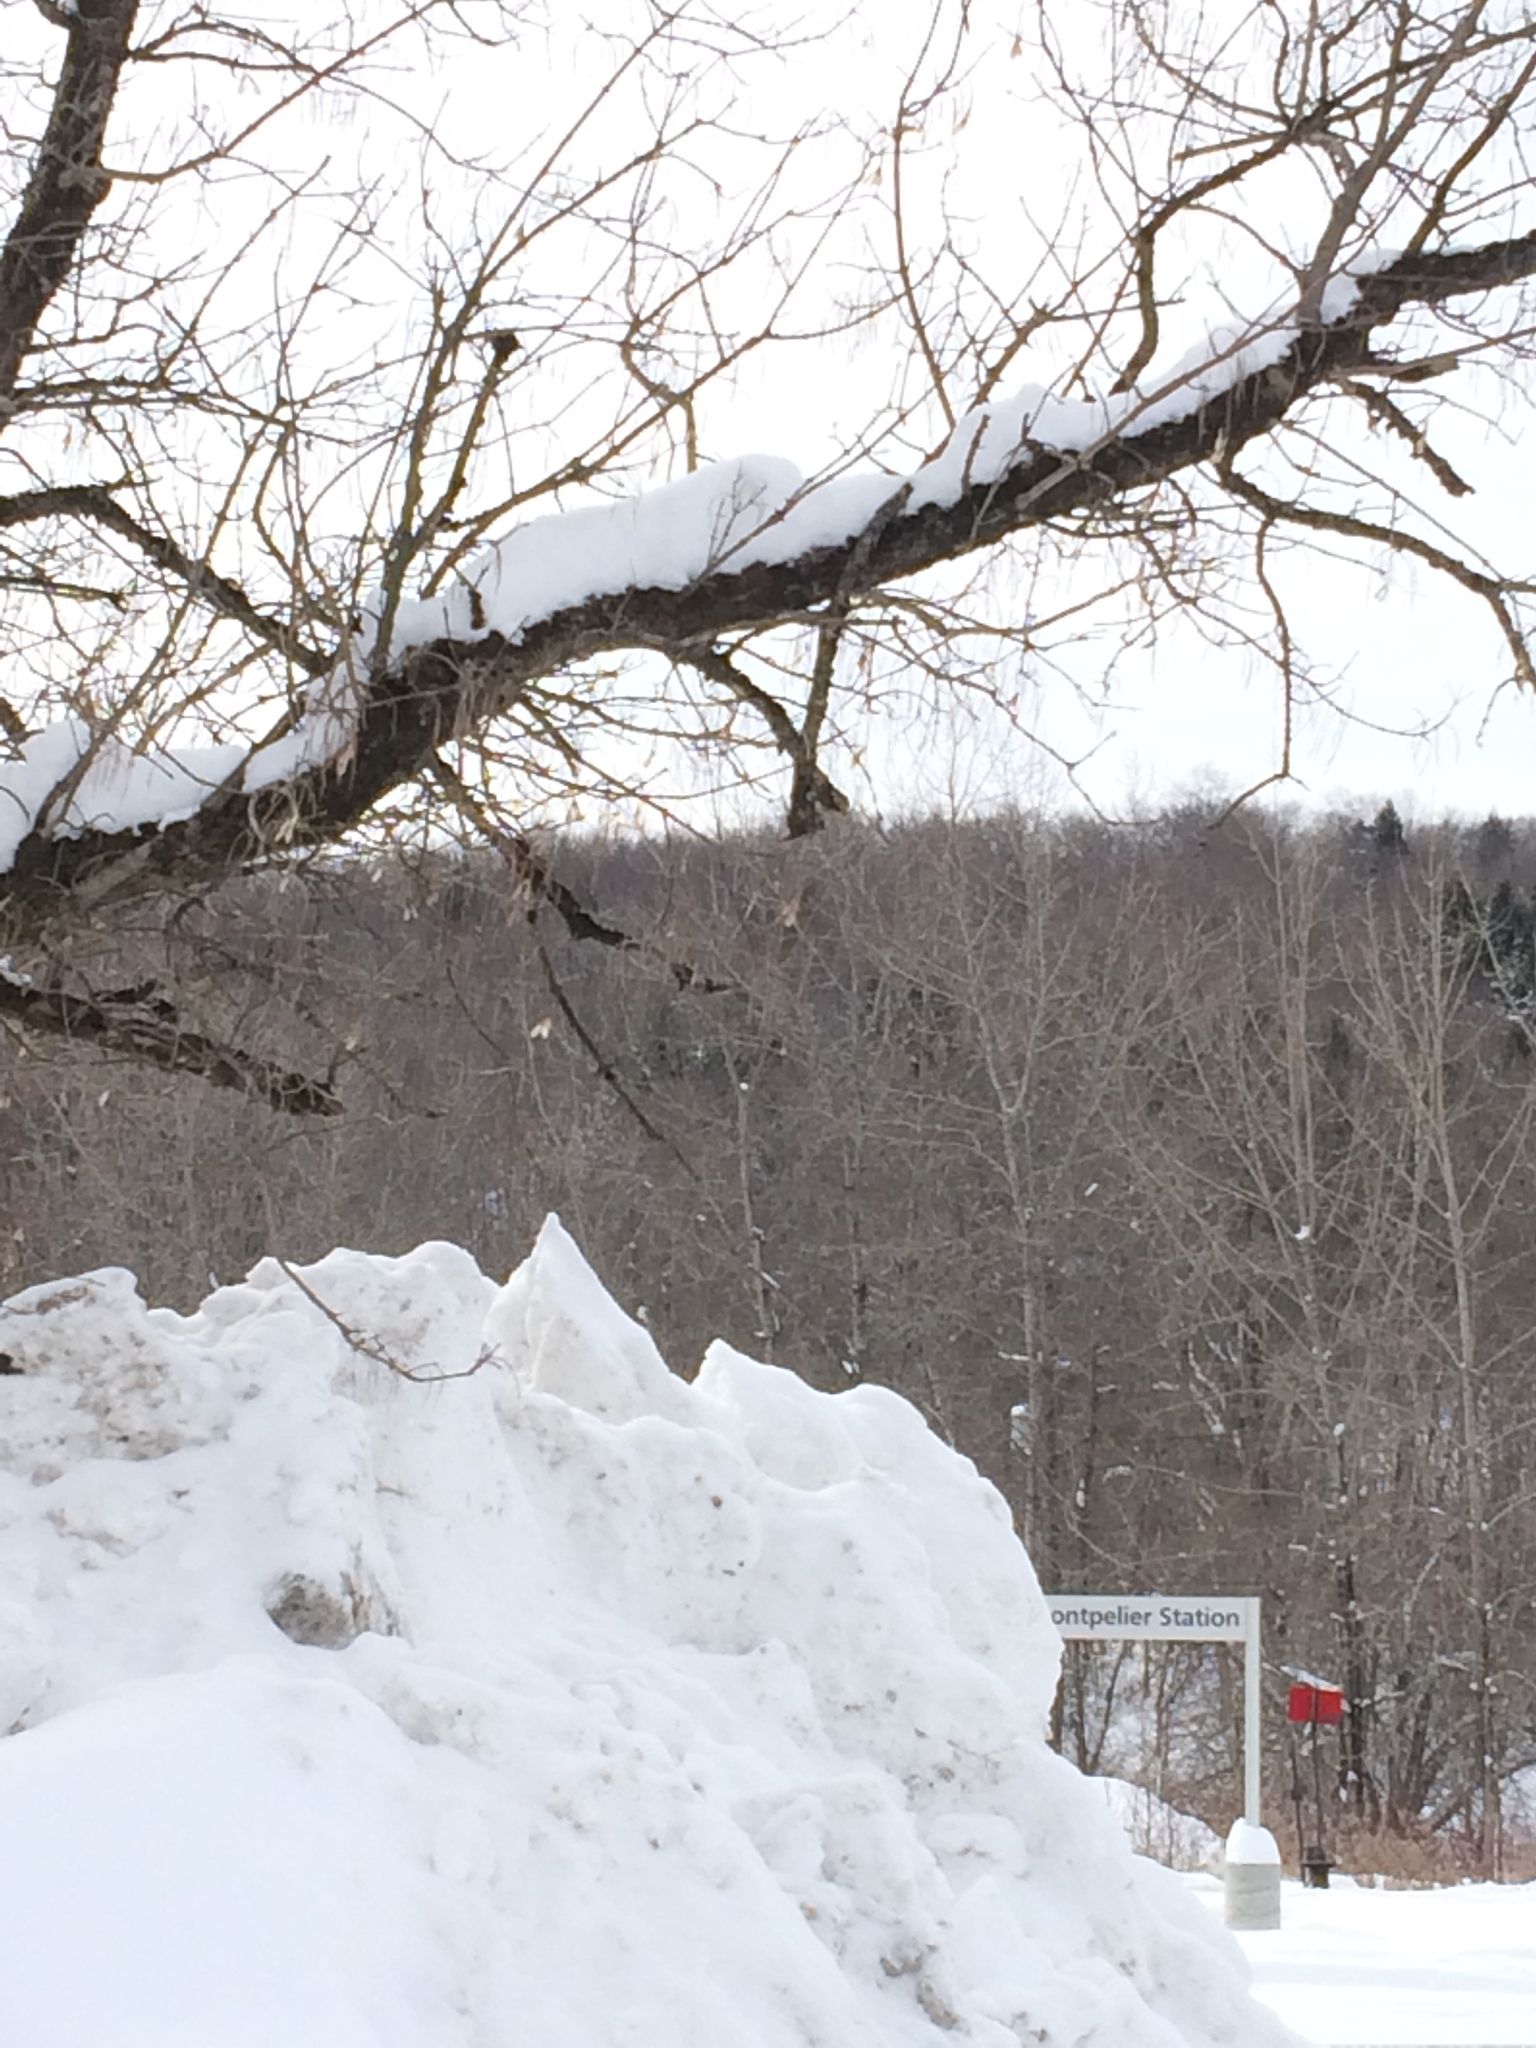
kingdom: Plantae
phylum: Tracheophyta
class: Magnoliopsida
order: Sapindales
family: Sapindaceae
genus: Acer
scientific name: Acer negundo
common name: Ashleaf maple
